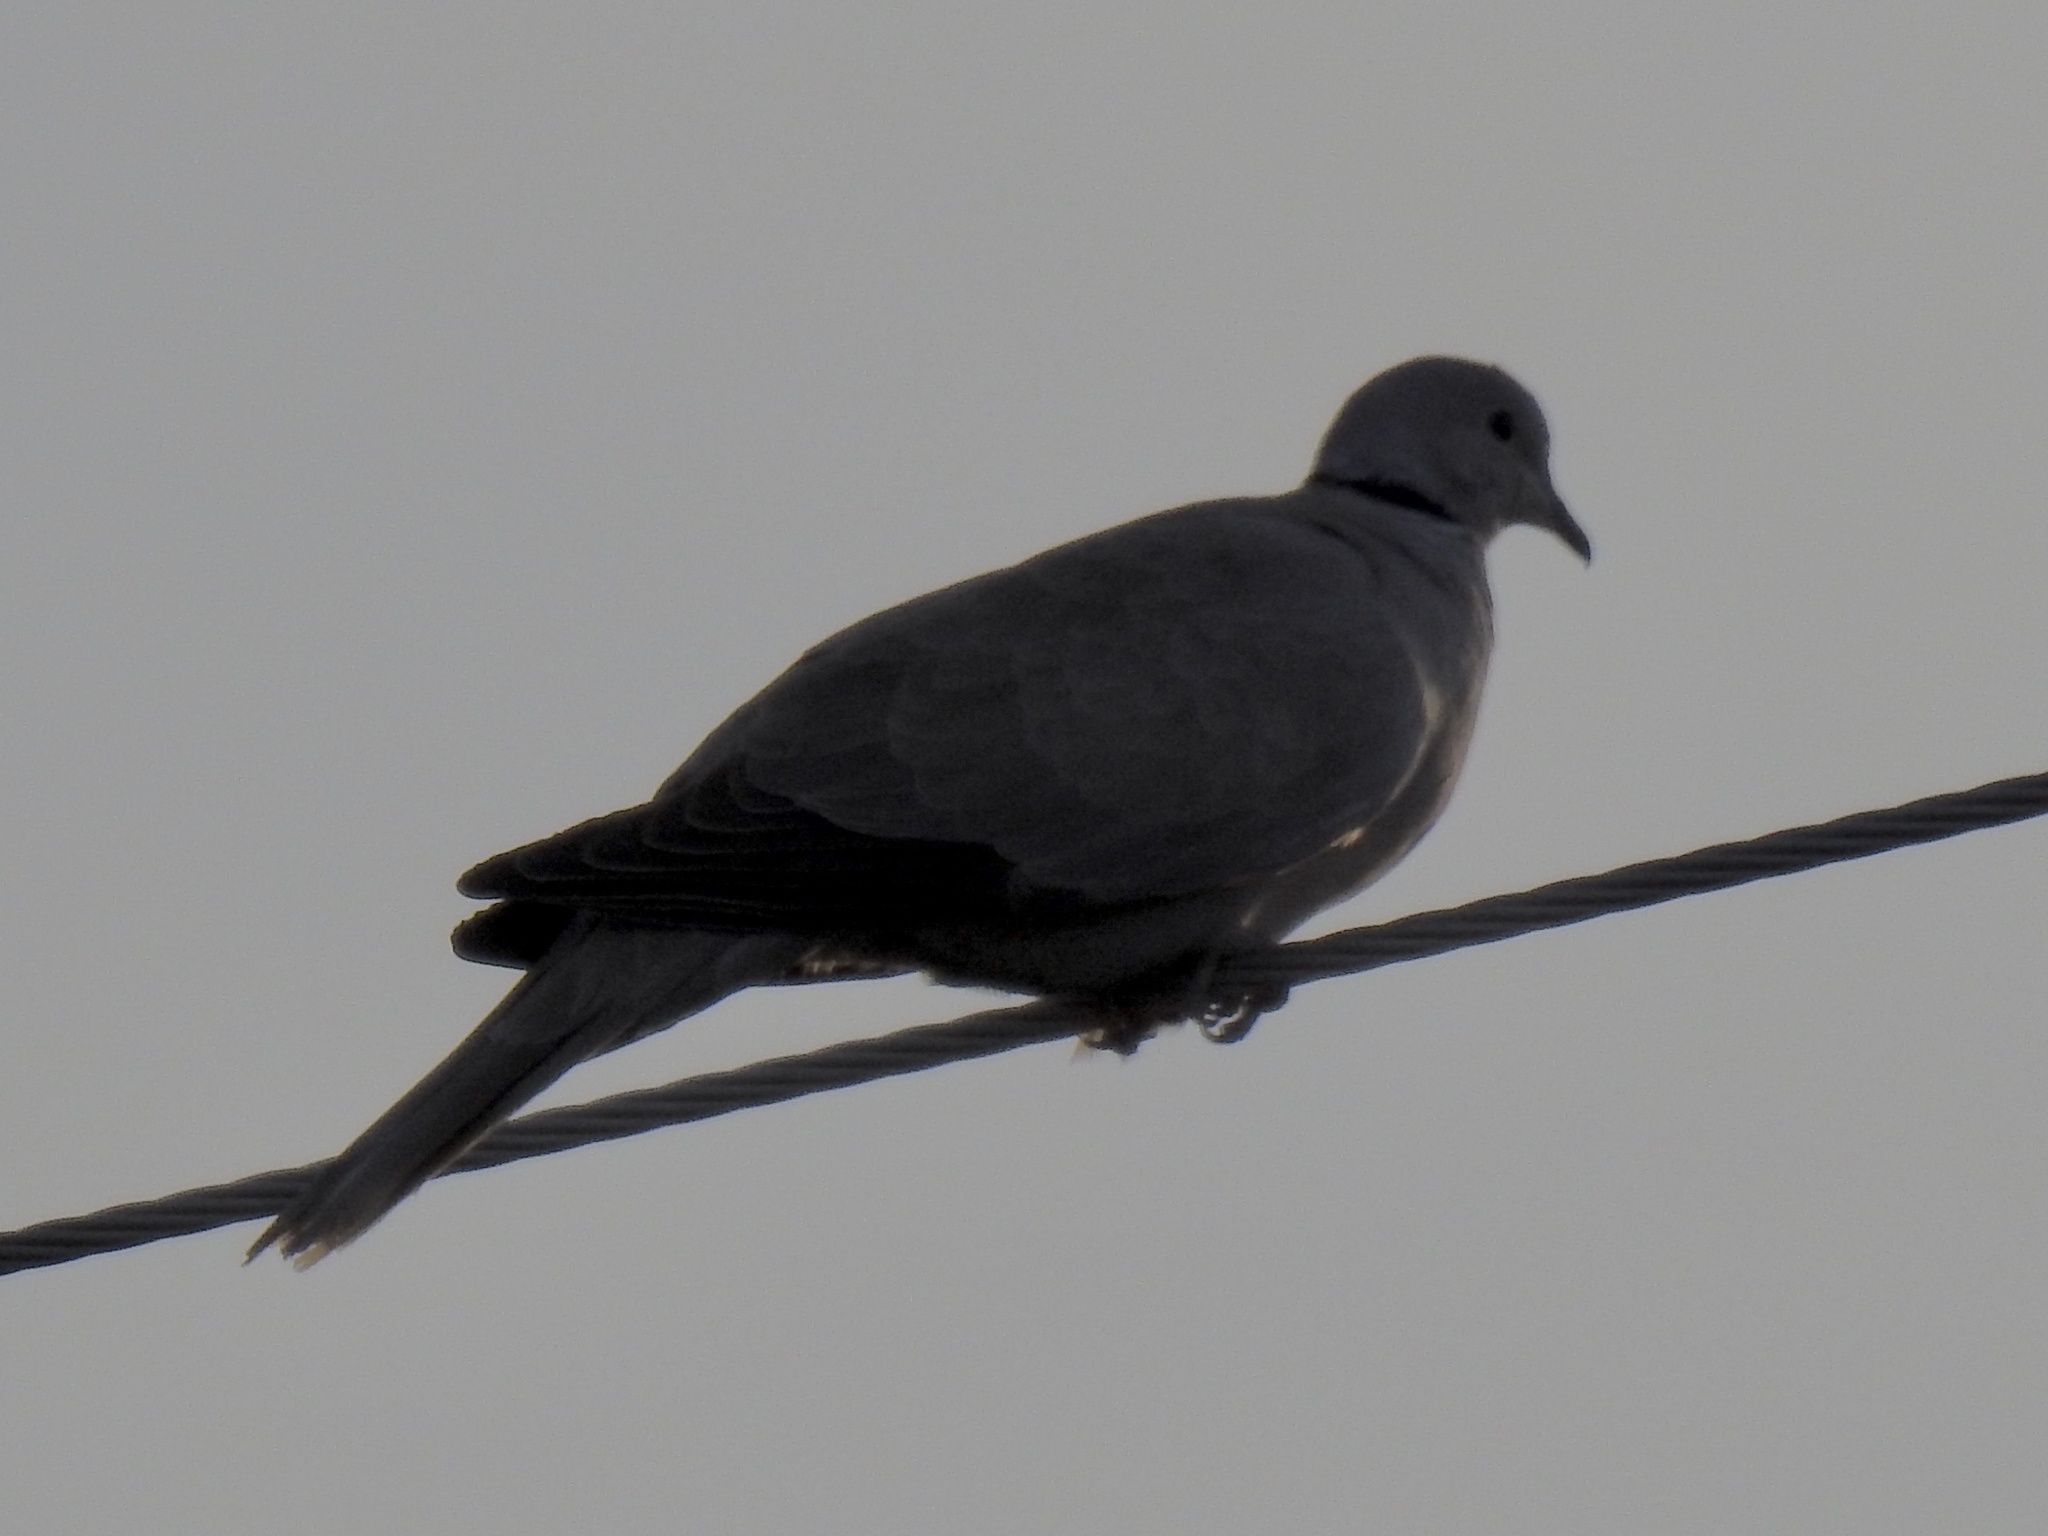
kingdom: Animalia
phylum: Chordata
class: Aves
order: Columbiformes
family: Columbidae
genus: Streptopelia
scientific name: Streptopelia decaocto
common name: Eurasian collared dove
